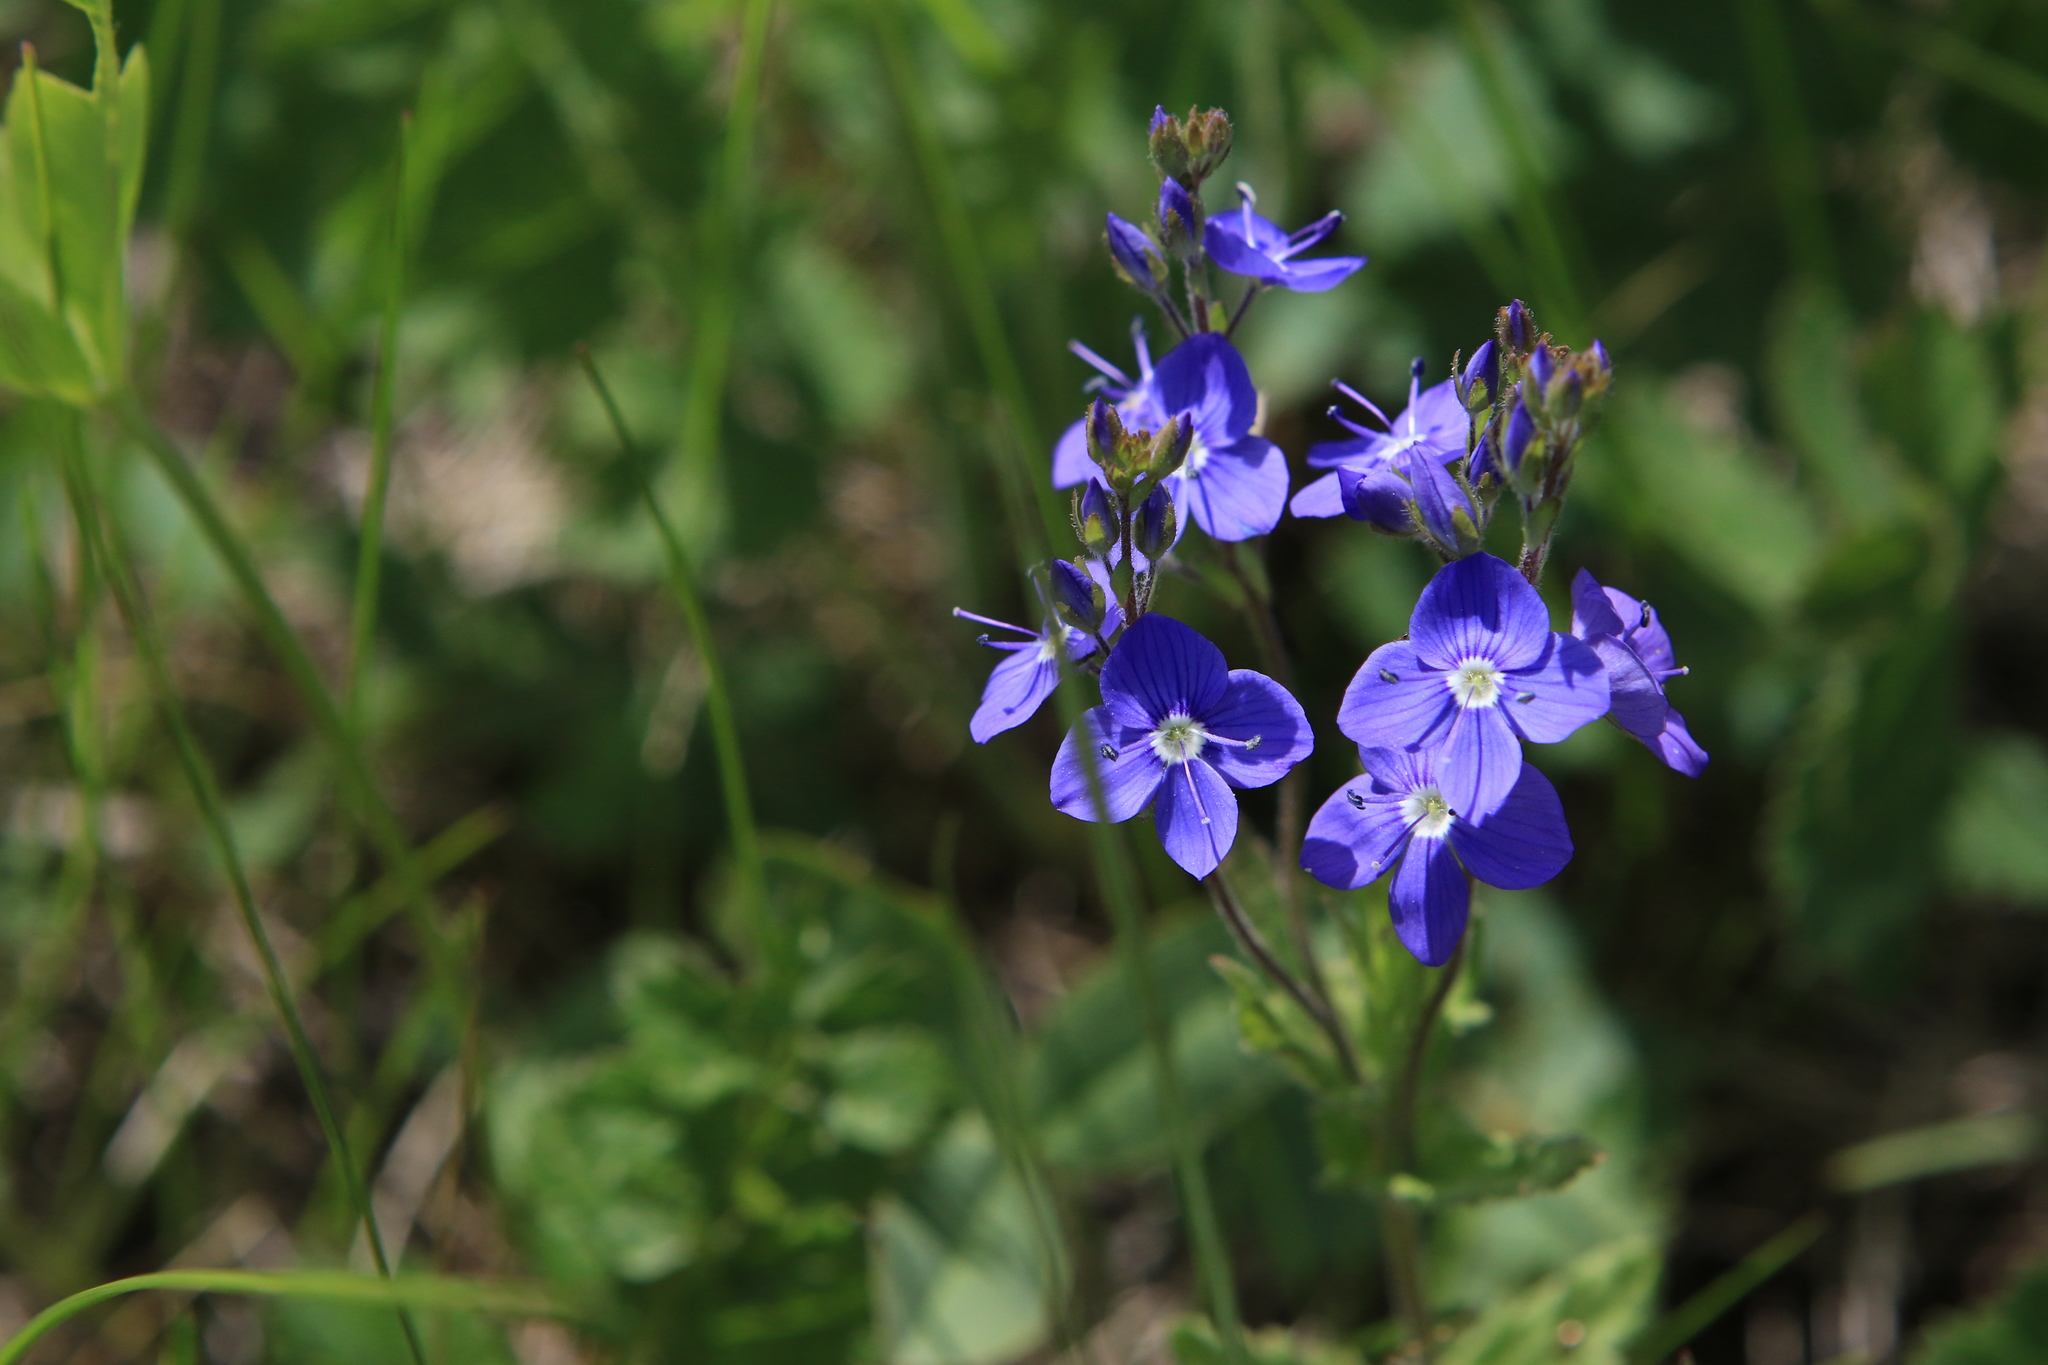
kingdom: Plantae
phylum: Tracheophyta
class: Magnoliopsida
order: Lamiales
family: Plantaginaceae
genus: Veronica
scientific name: Veronica krylovii
